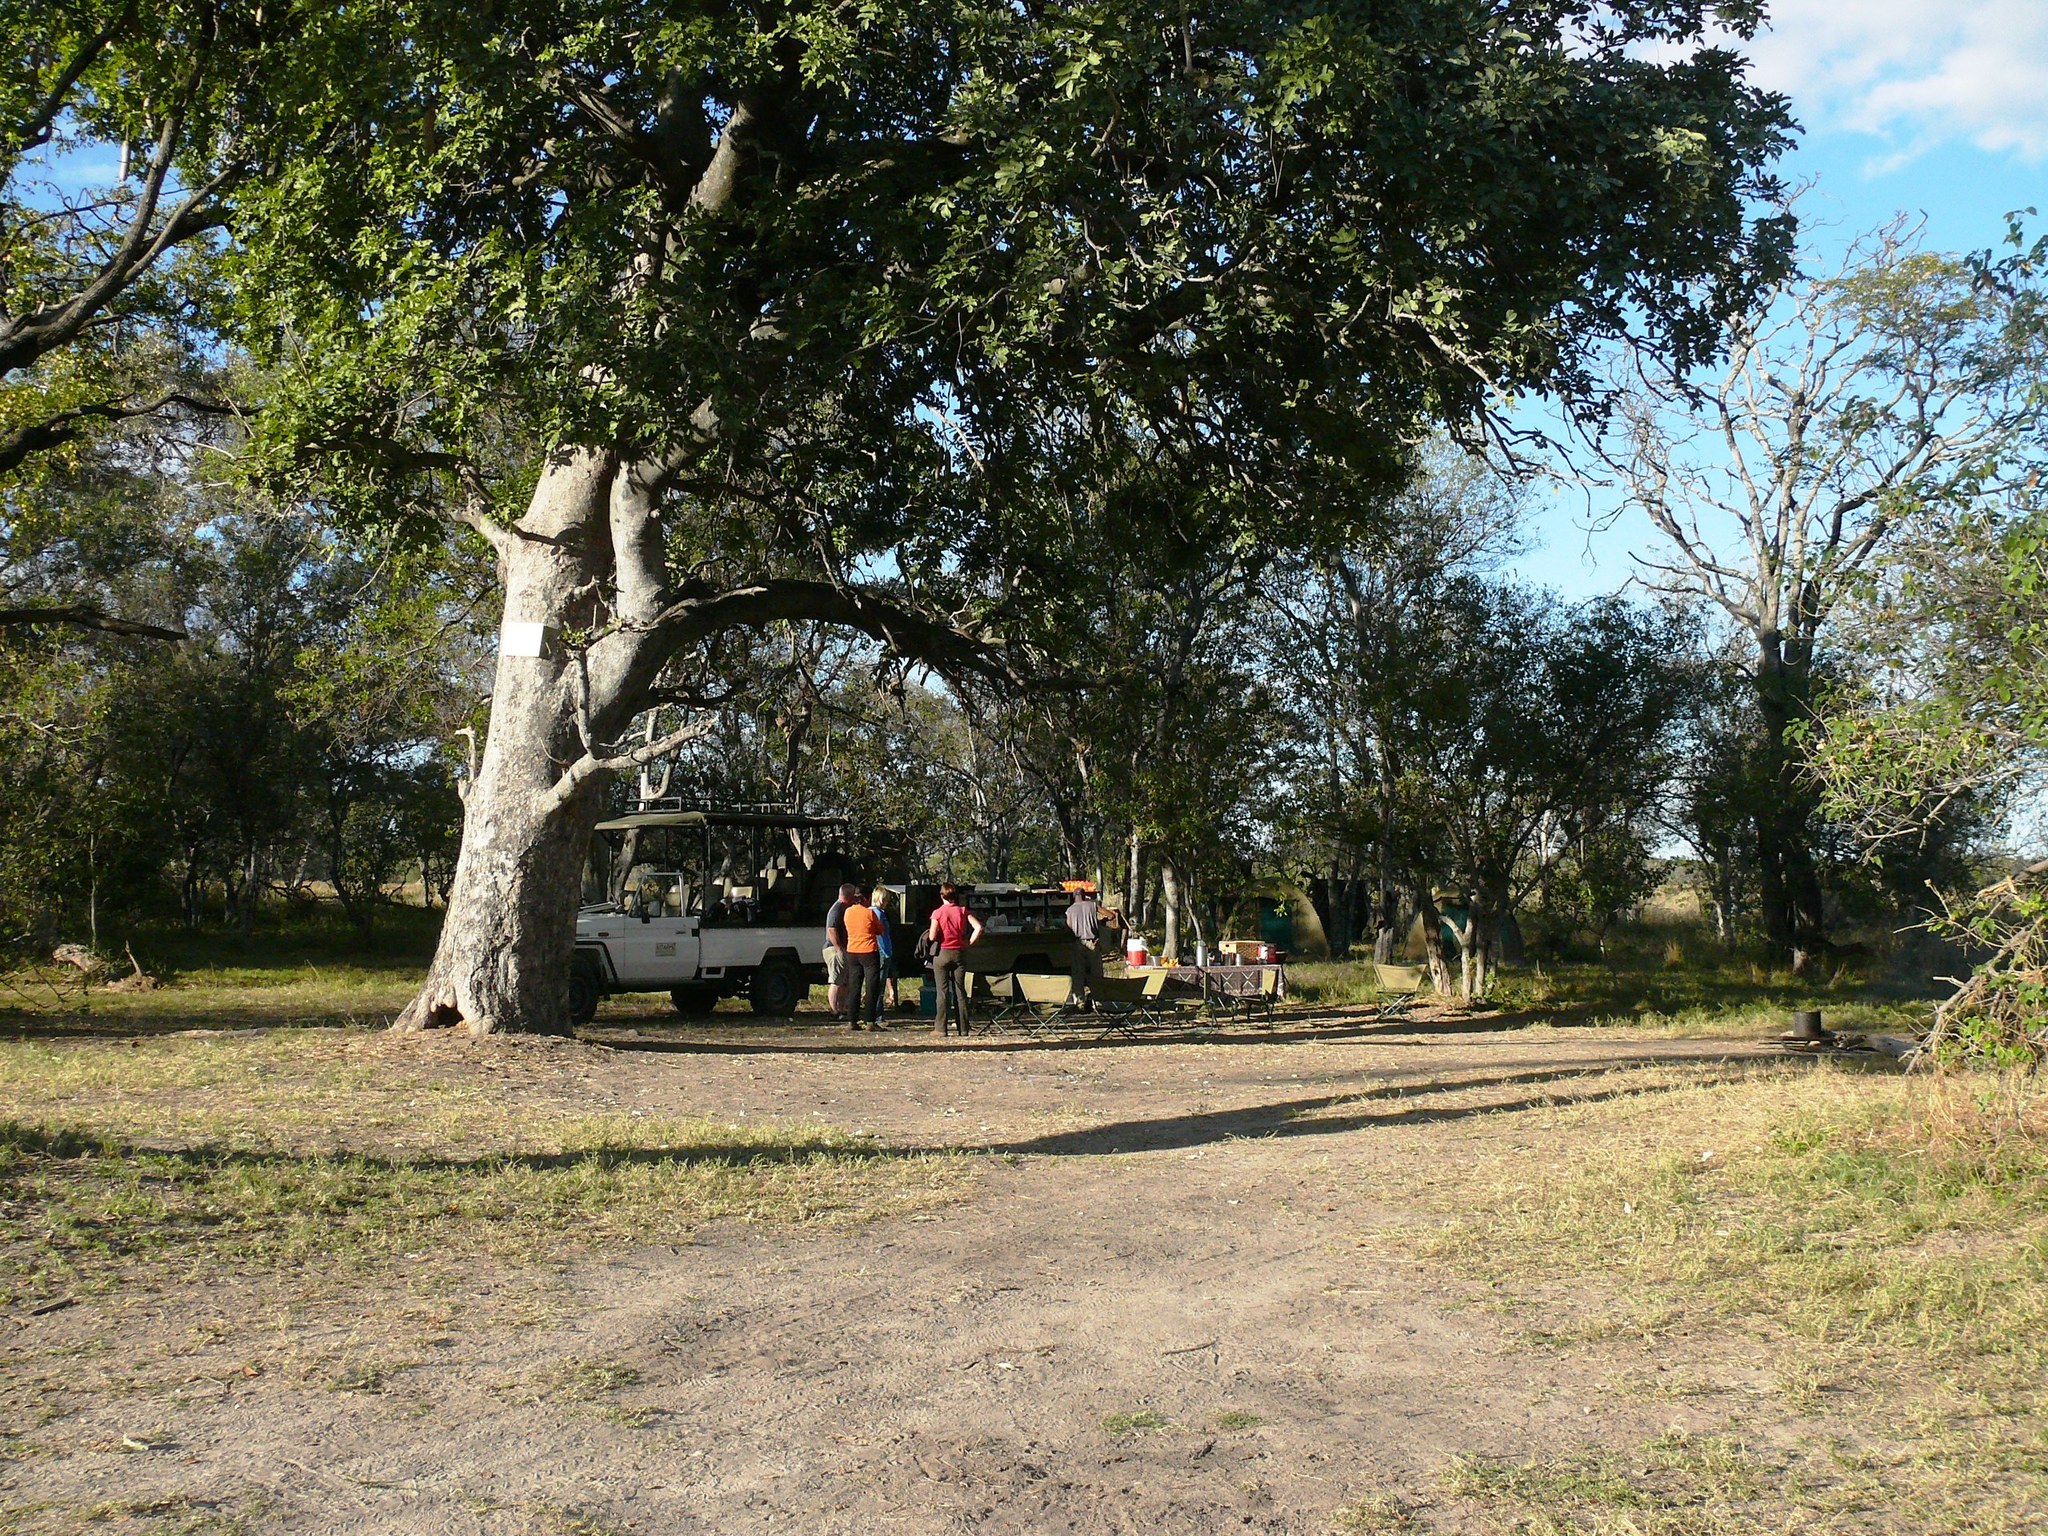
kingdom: Plantae
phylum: Tracheophyta
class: Magnoliopsida
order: Lamiales
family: Bignoniaceae
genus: Kigelia
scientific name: Kigelia africana
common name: Sausage tree
